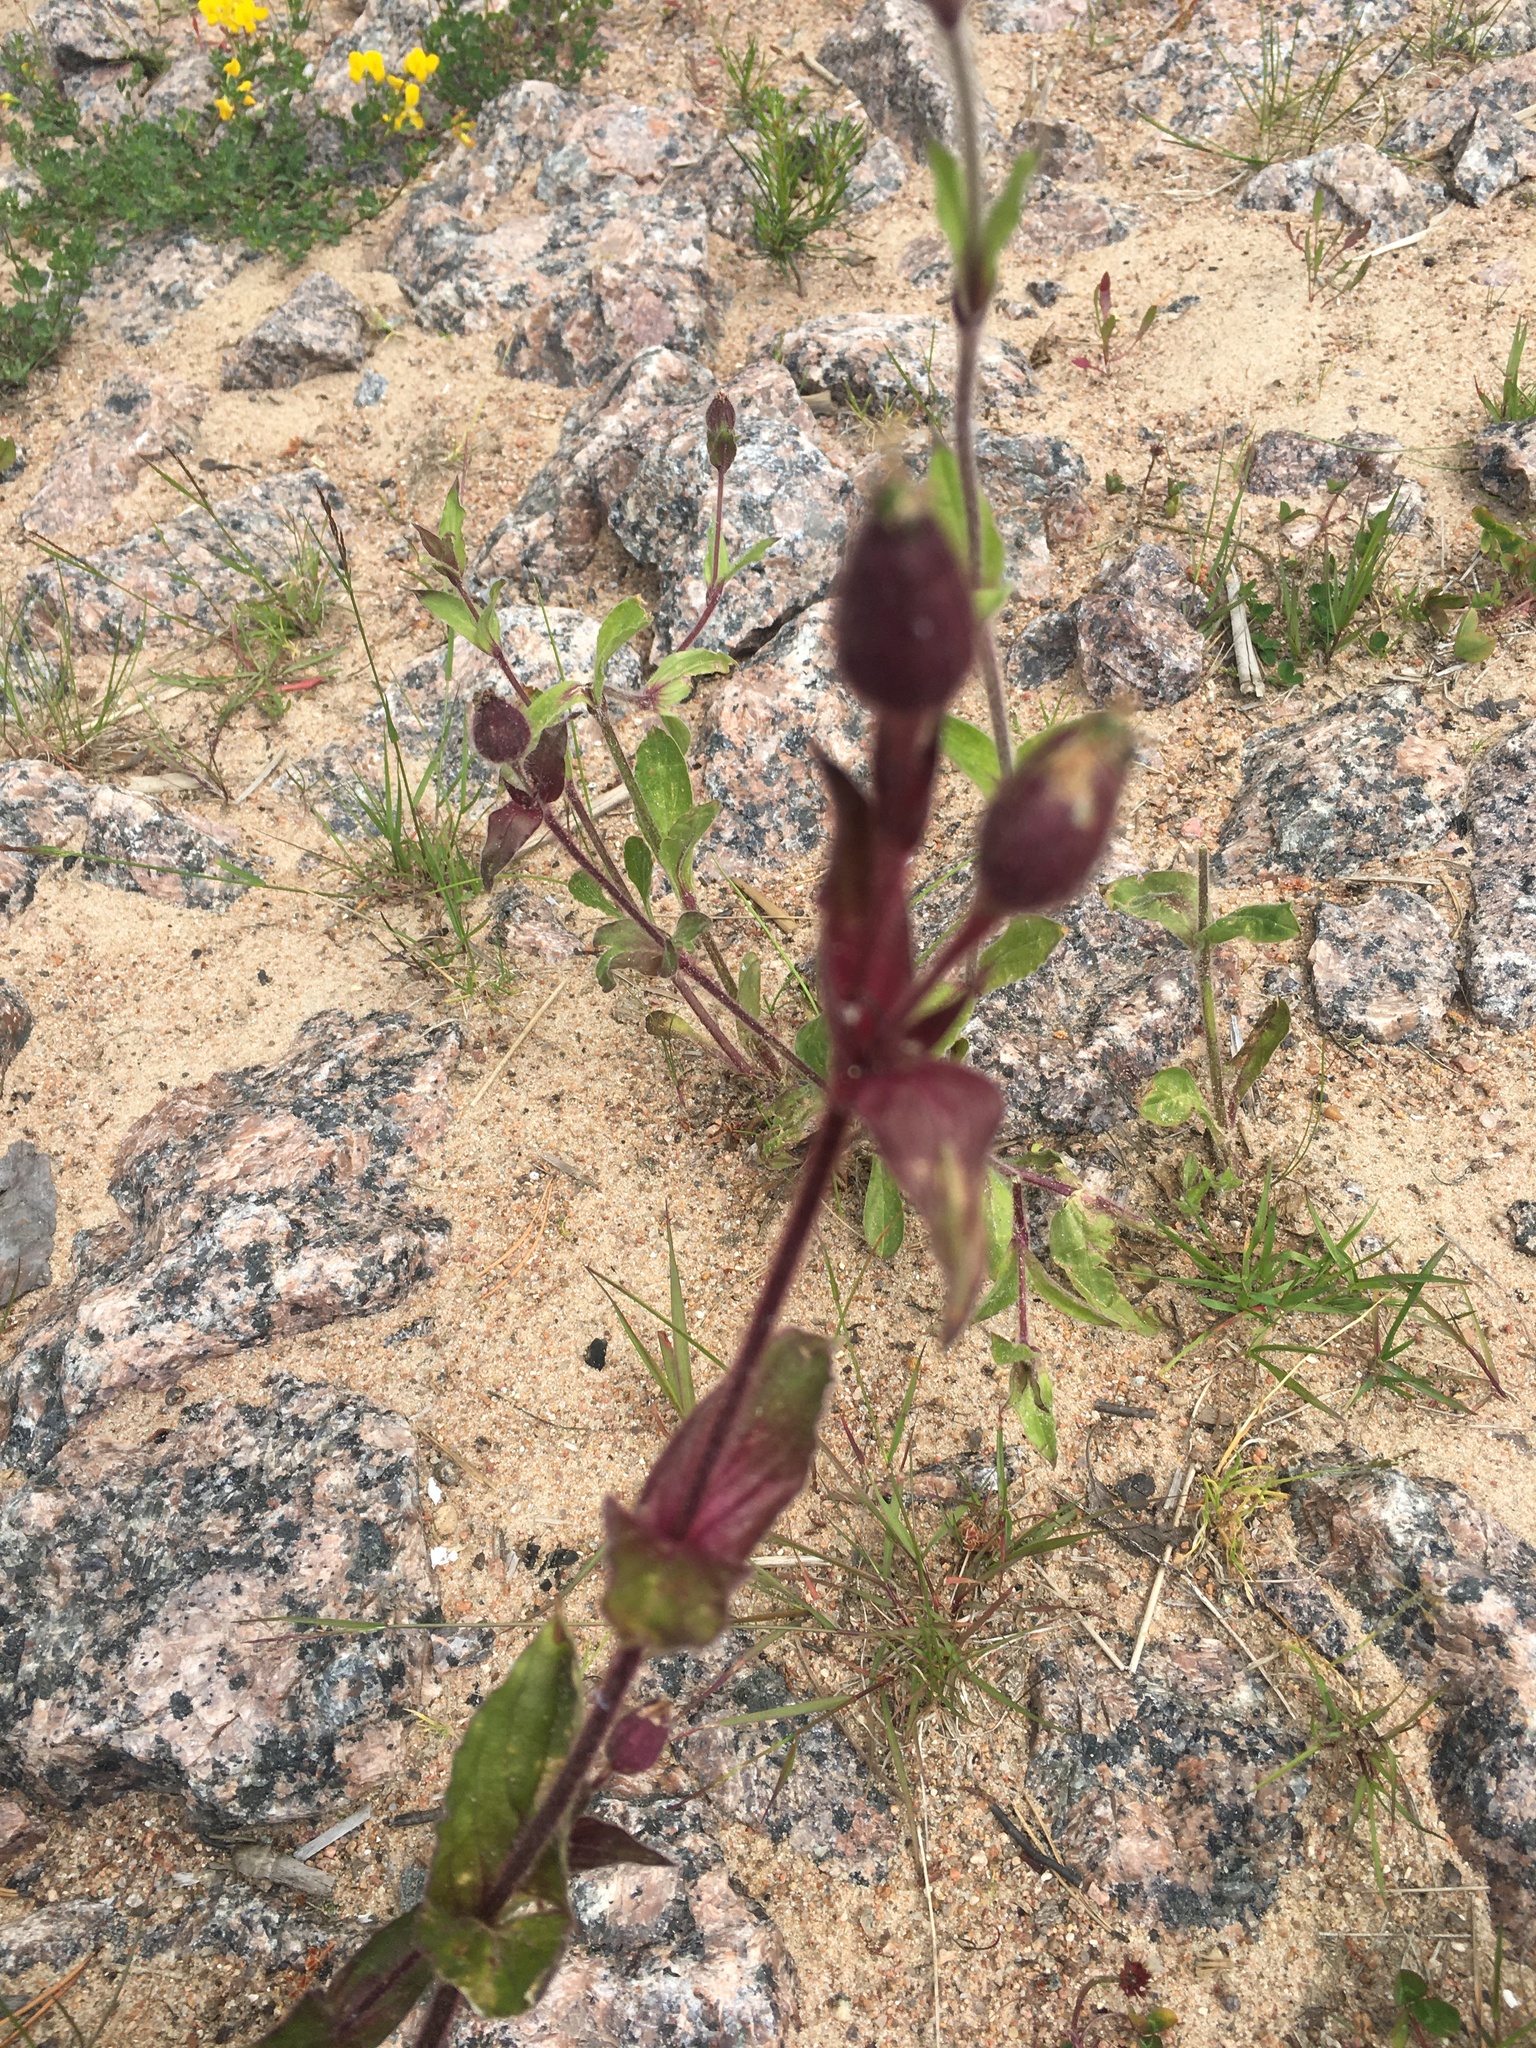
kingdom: Plantae
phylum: Tracheophyta
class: Magnoliopsida
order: Caryophyllales
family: Caryophyllaceae
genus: Silene
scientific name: Silene dioica
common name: Red campion
